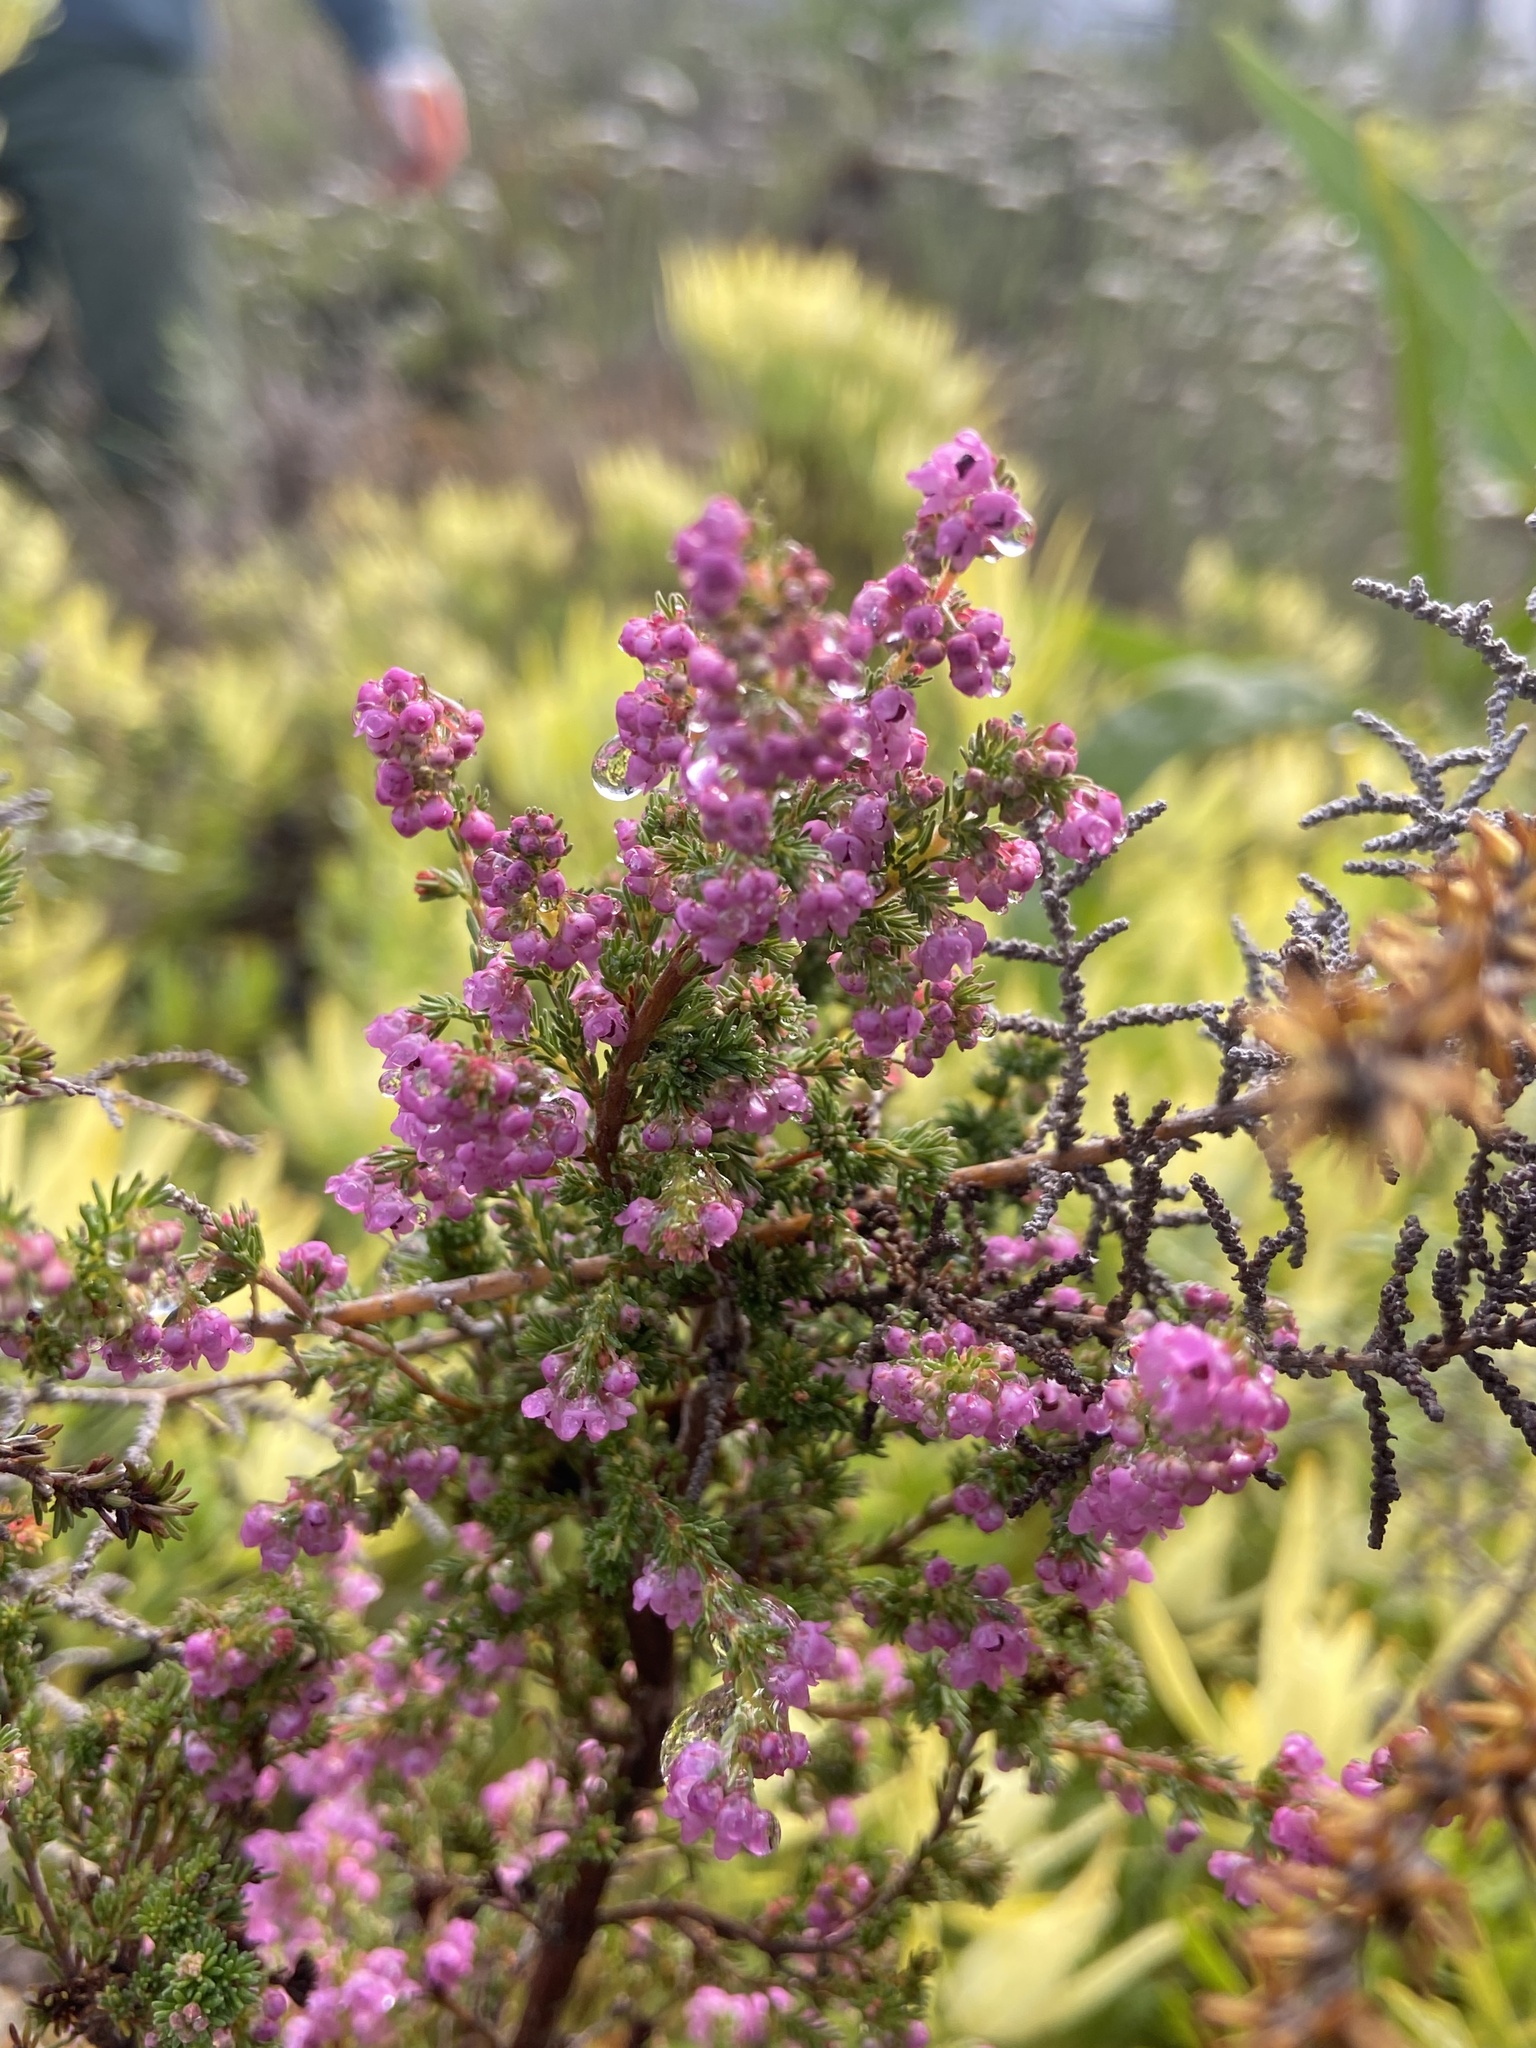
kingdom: Plantae
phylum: Tracheophyta
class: Magnoliopsida
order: Ericales
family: Ericaceae
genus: Erica
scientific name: Erica mauritanica
